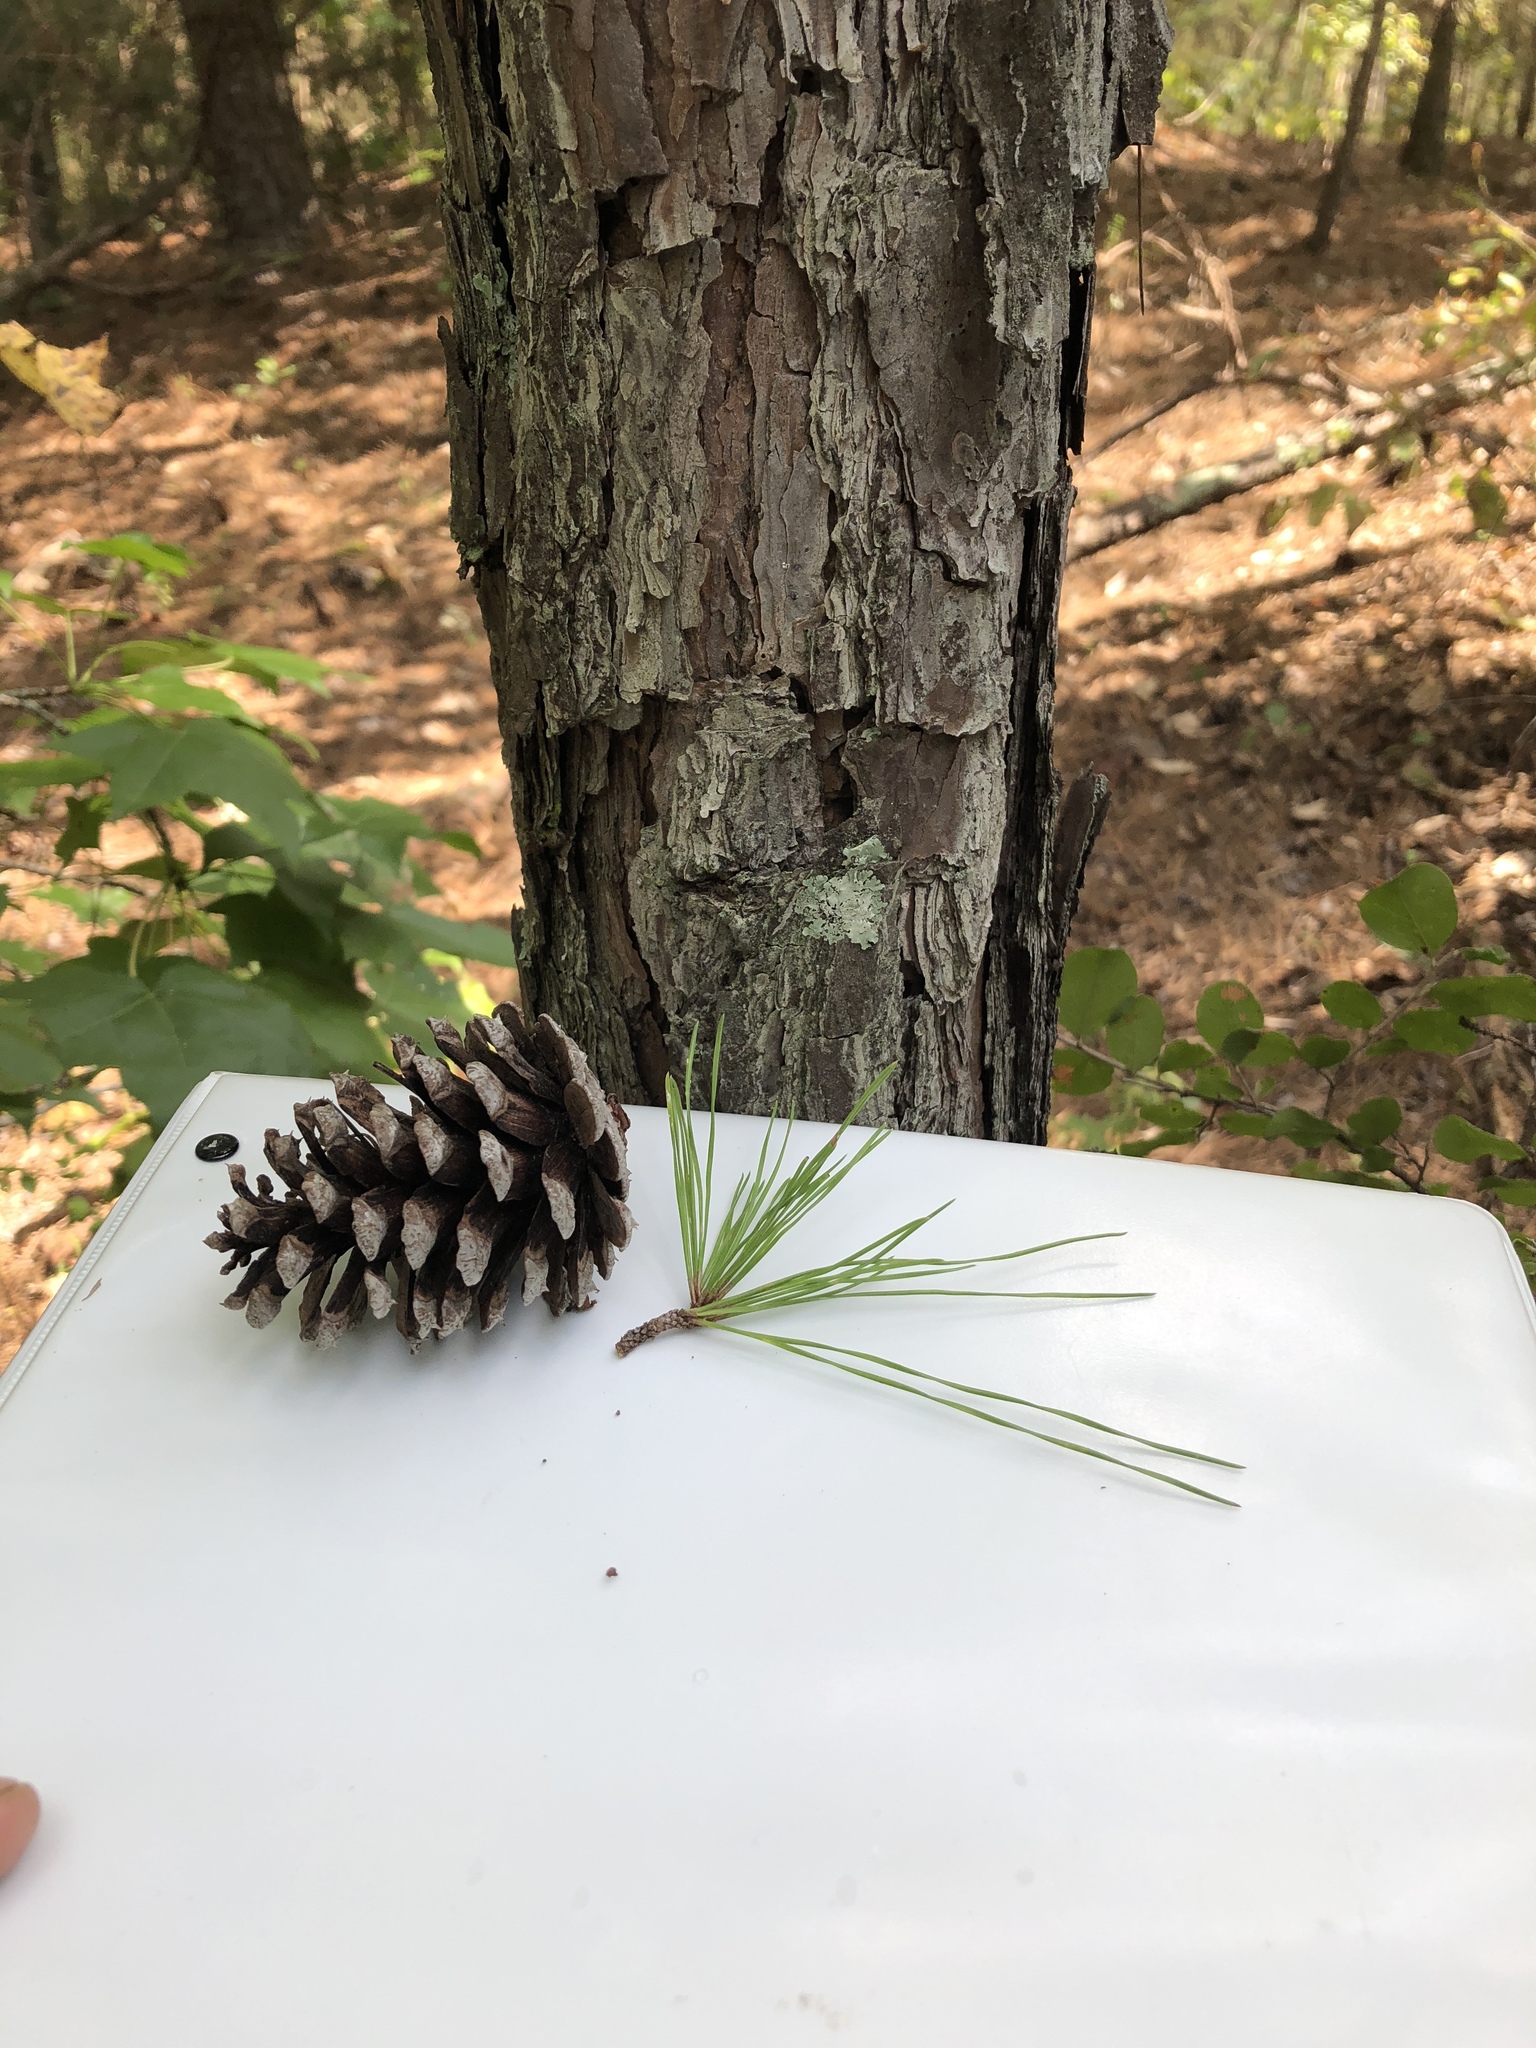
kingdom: Plantae
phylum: Tracheophyta
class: Pinopsida
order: Pinales
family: Pinaceae
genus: Pinus
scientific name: Pinus echinata
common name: Shortleaf pine
